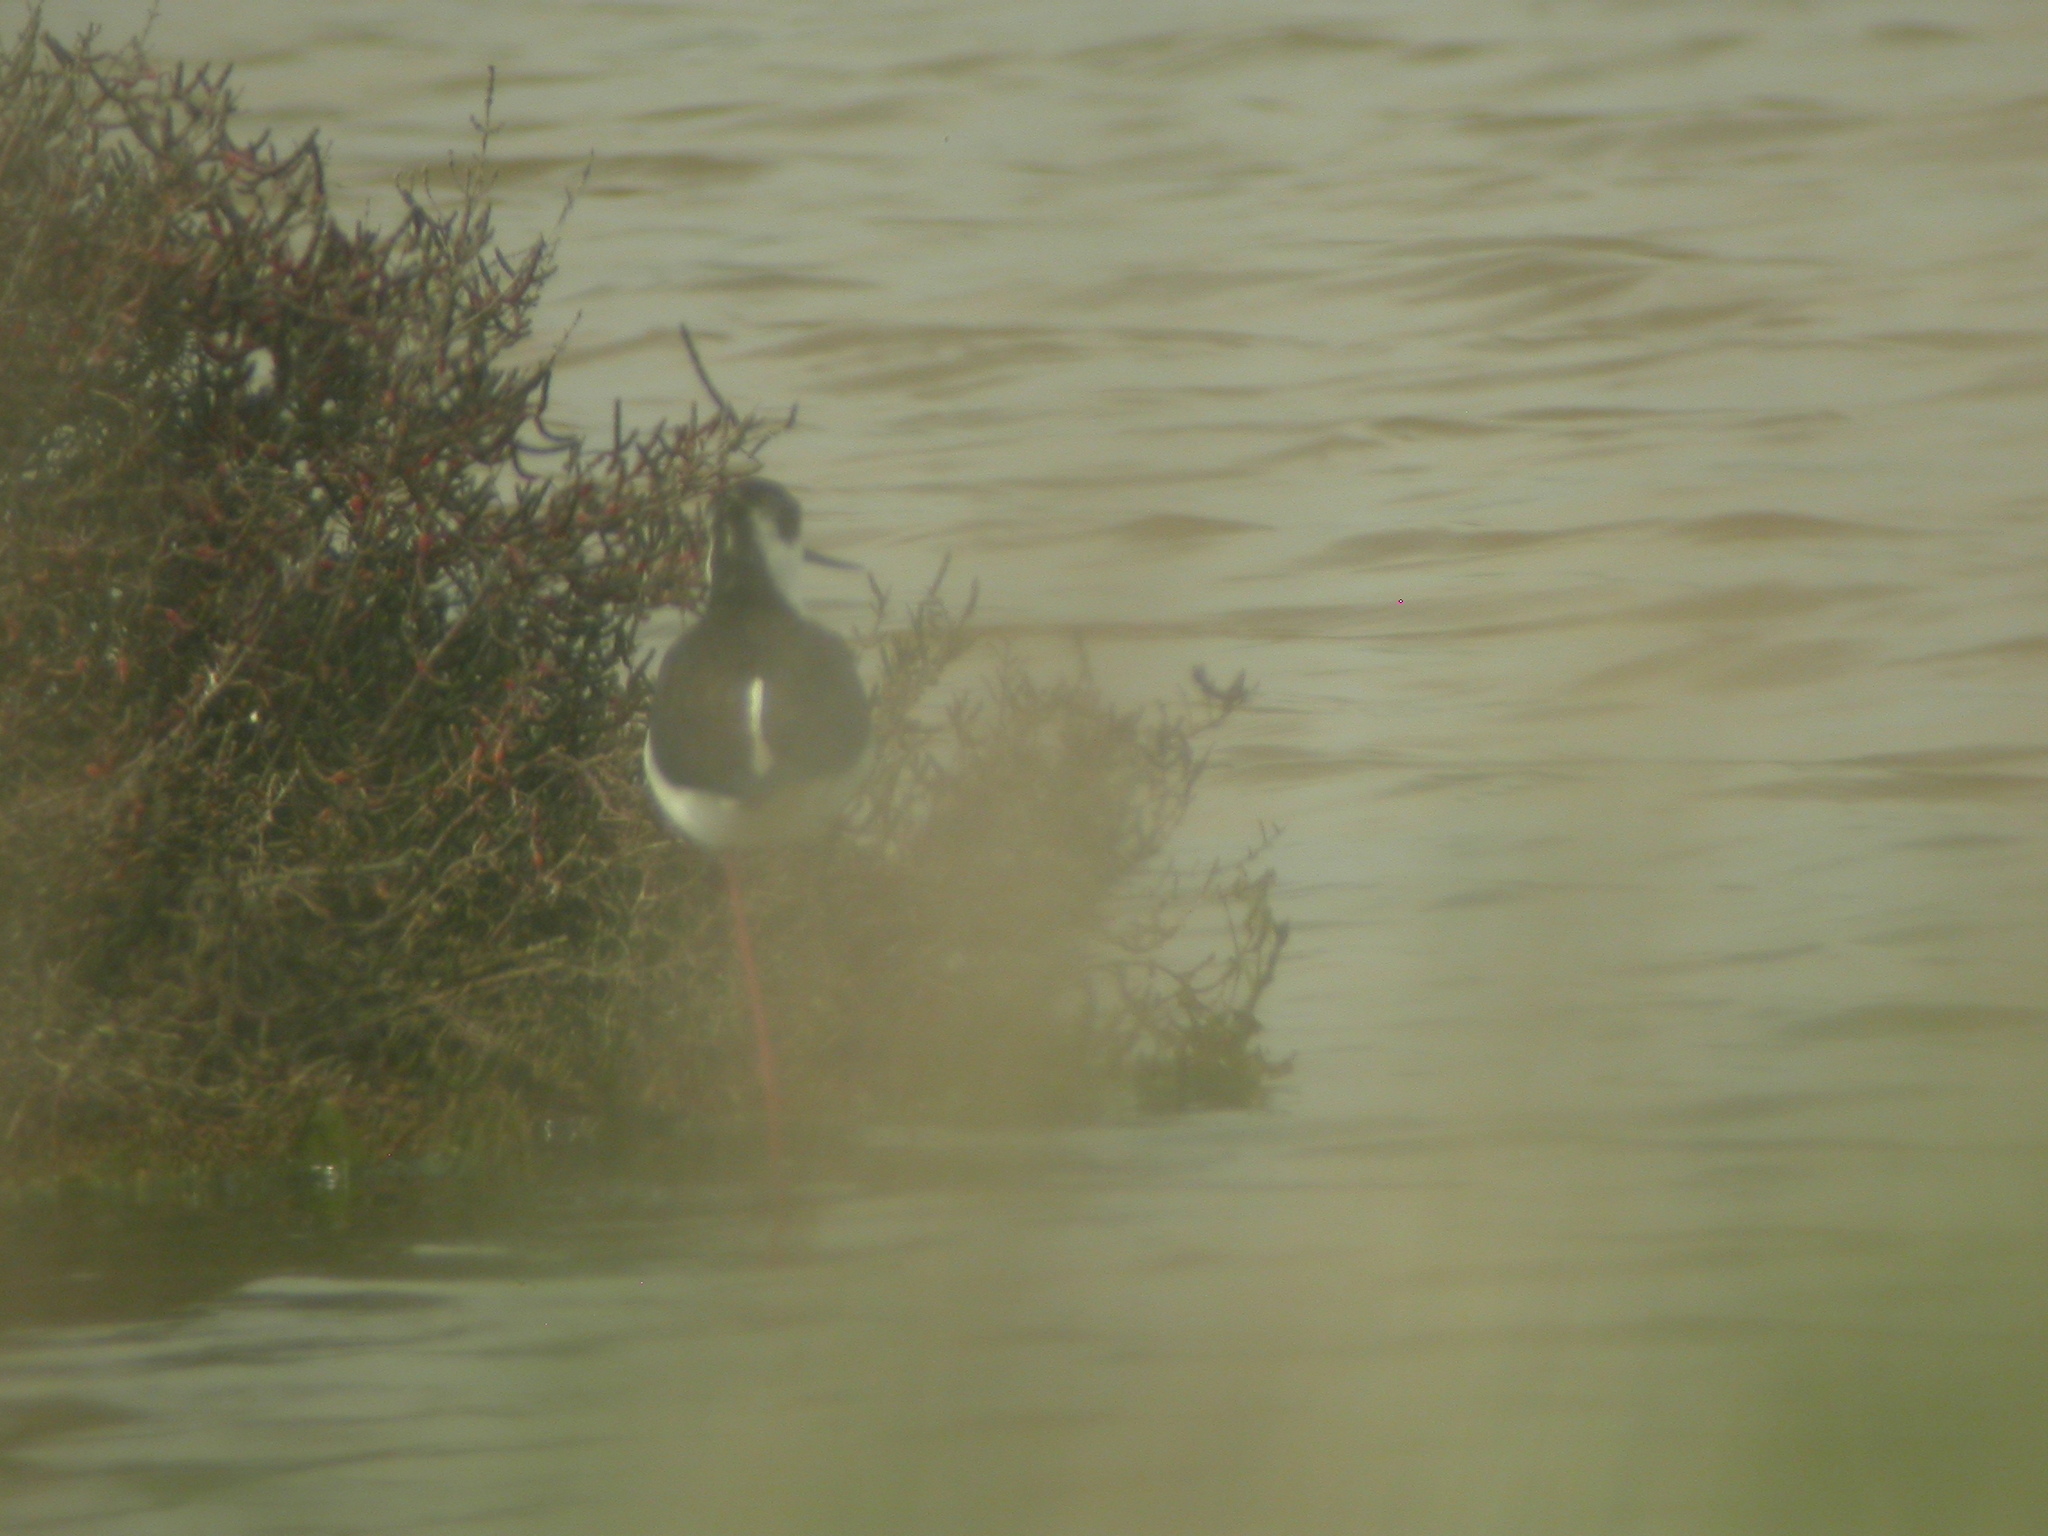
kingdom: Animalia
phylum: Chordata
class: Aves
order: Charadriiformes
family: Recurvirostridae
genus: Himantopus
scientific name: Himantopus himantopus
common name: Black-winged stilt
